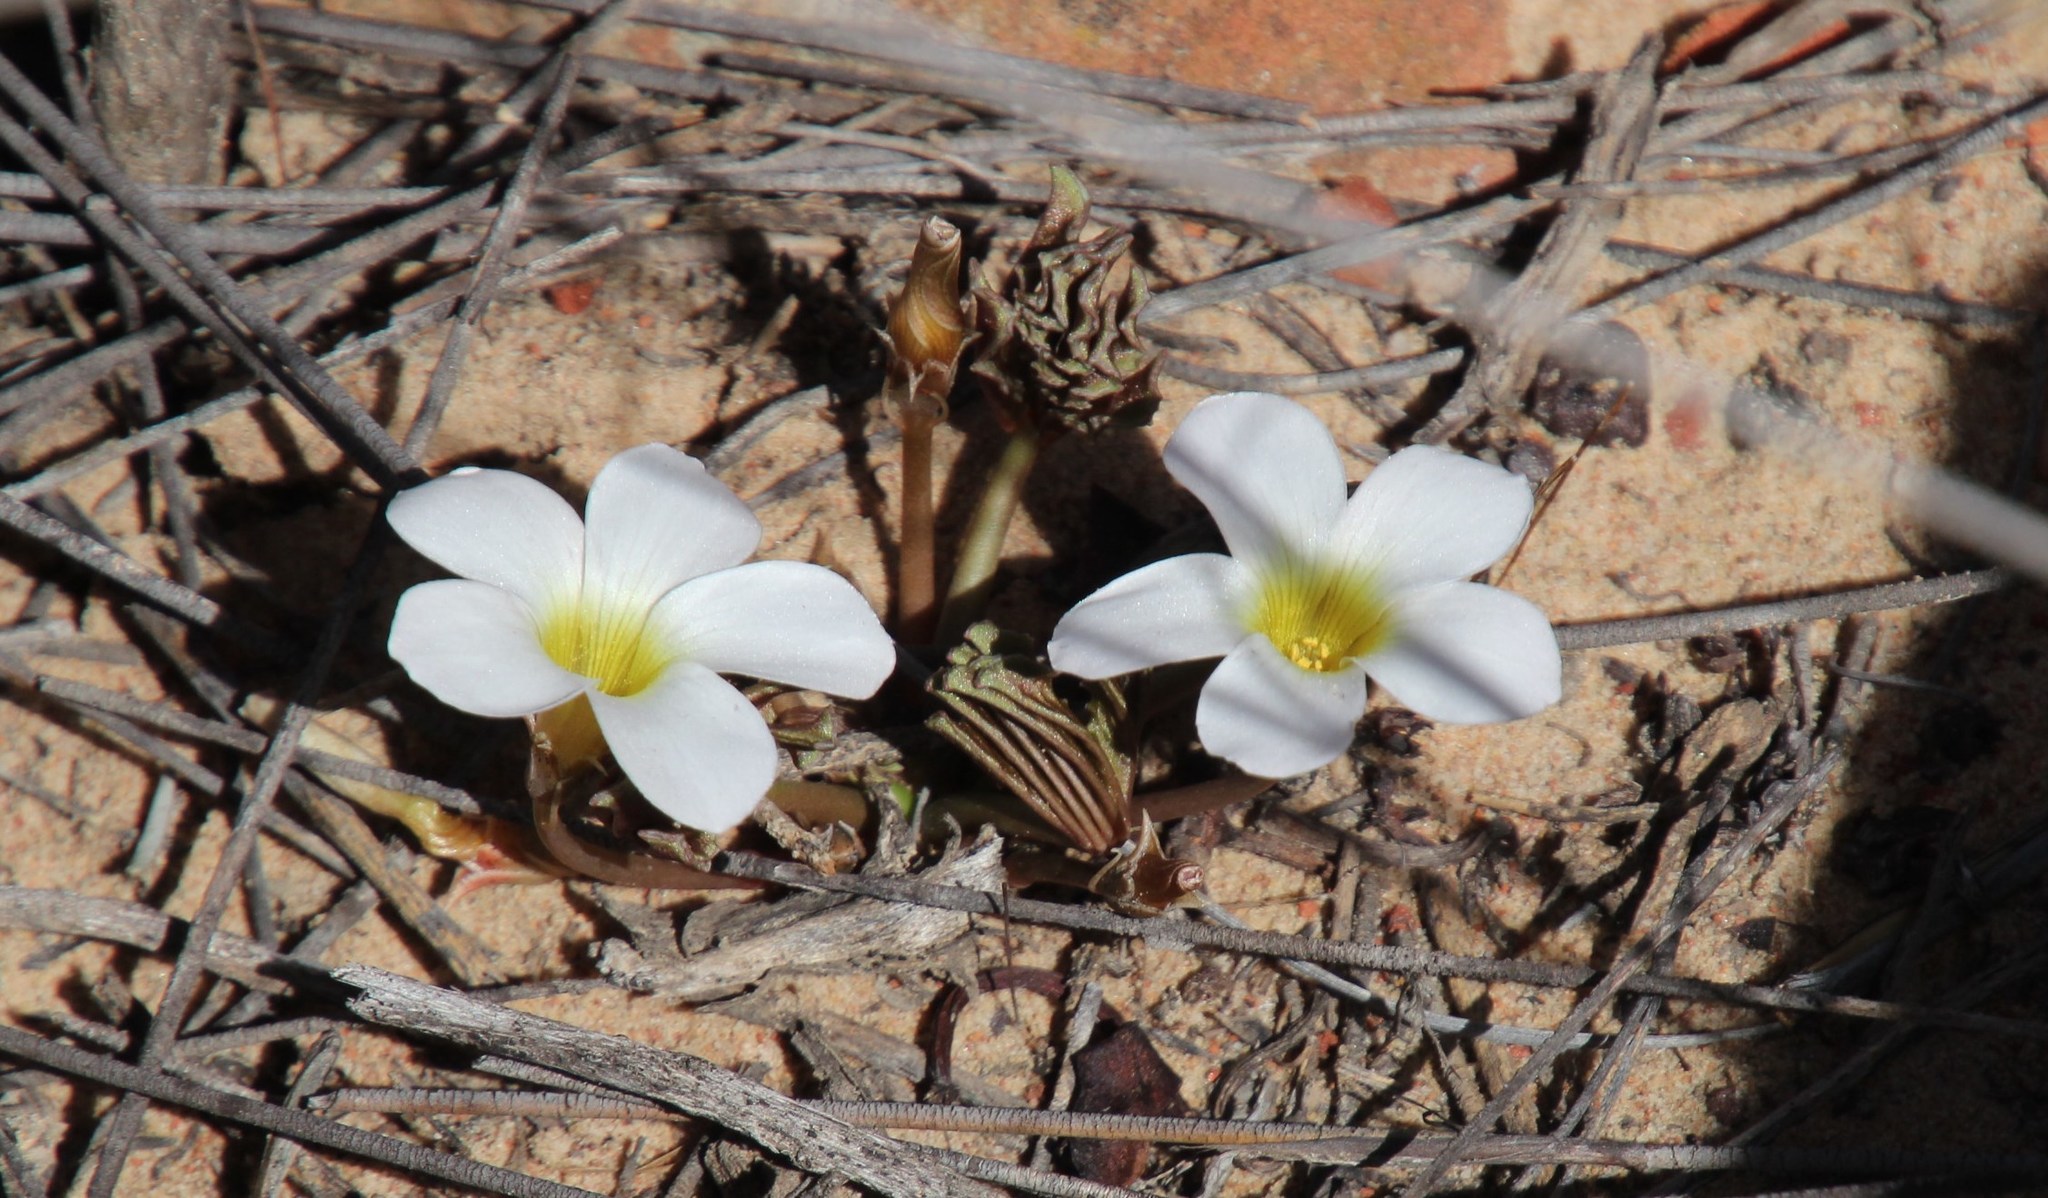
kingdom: Plantae
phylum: Tracheophyta
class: Magnoliopsida
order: Oxalidales
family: Oxalidaceae
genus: Oxalis
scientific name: Oxalis flava
